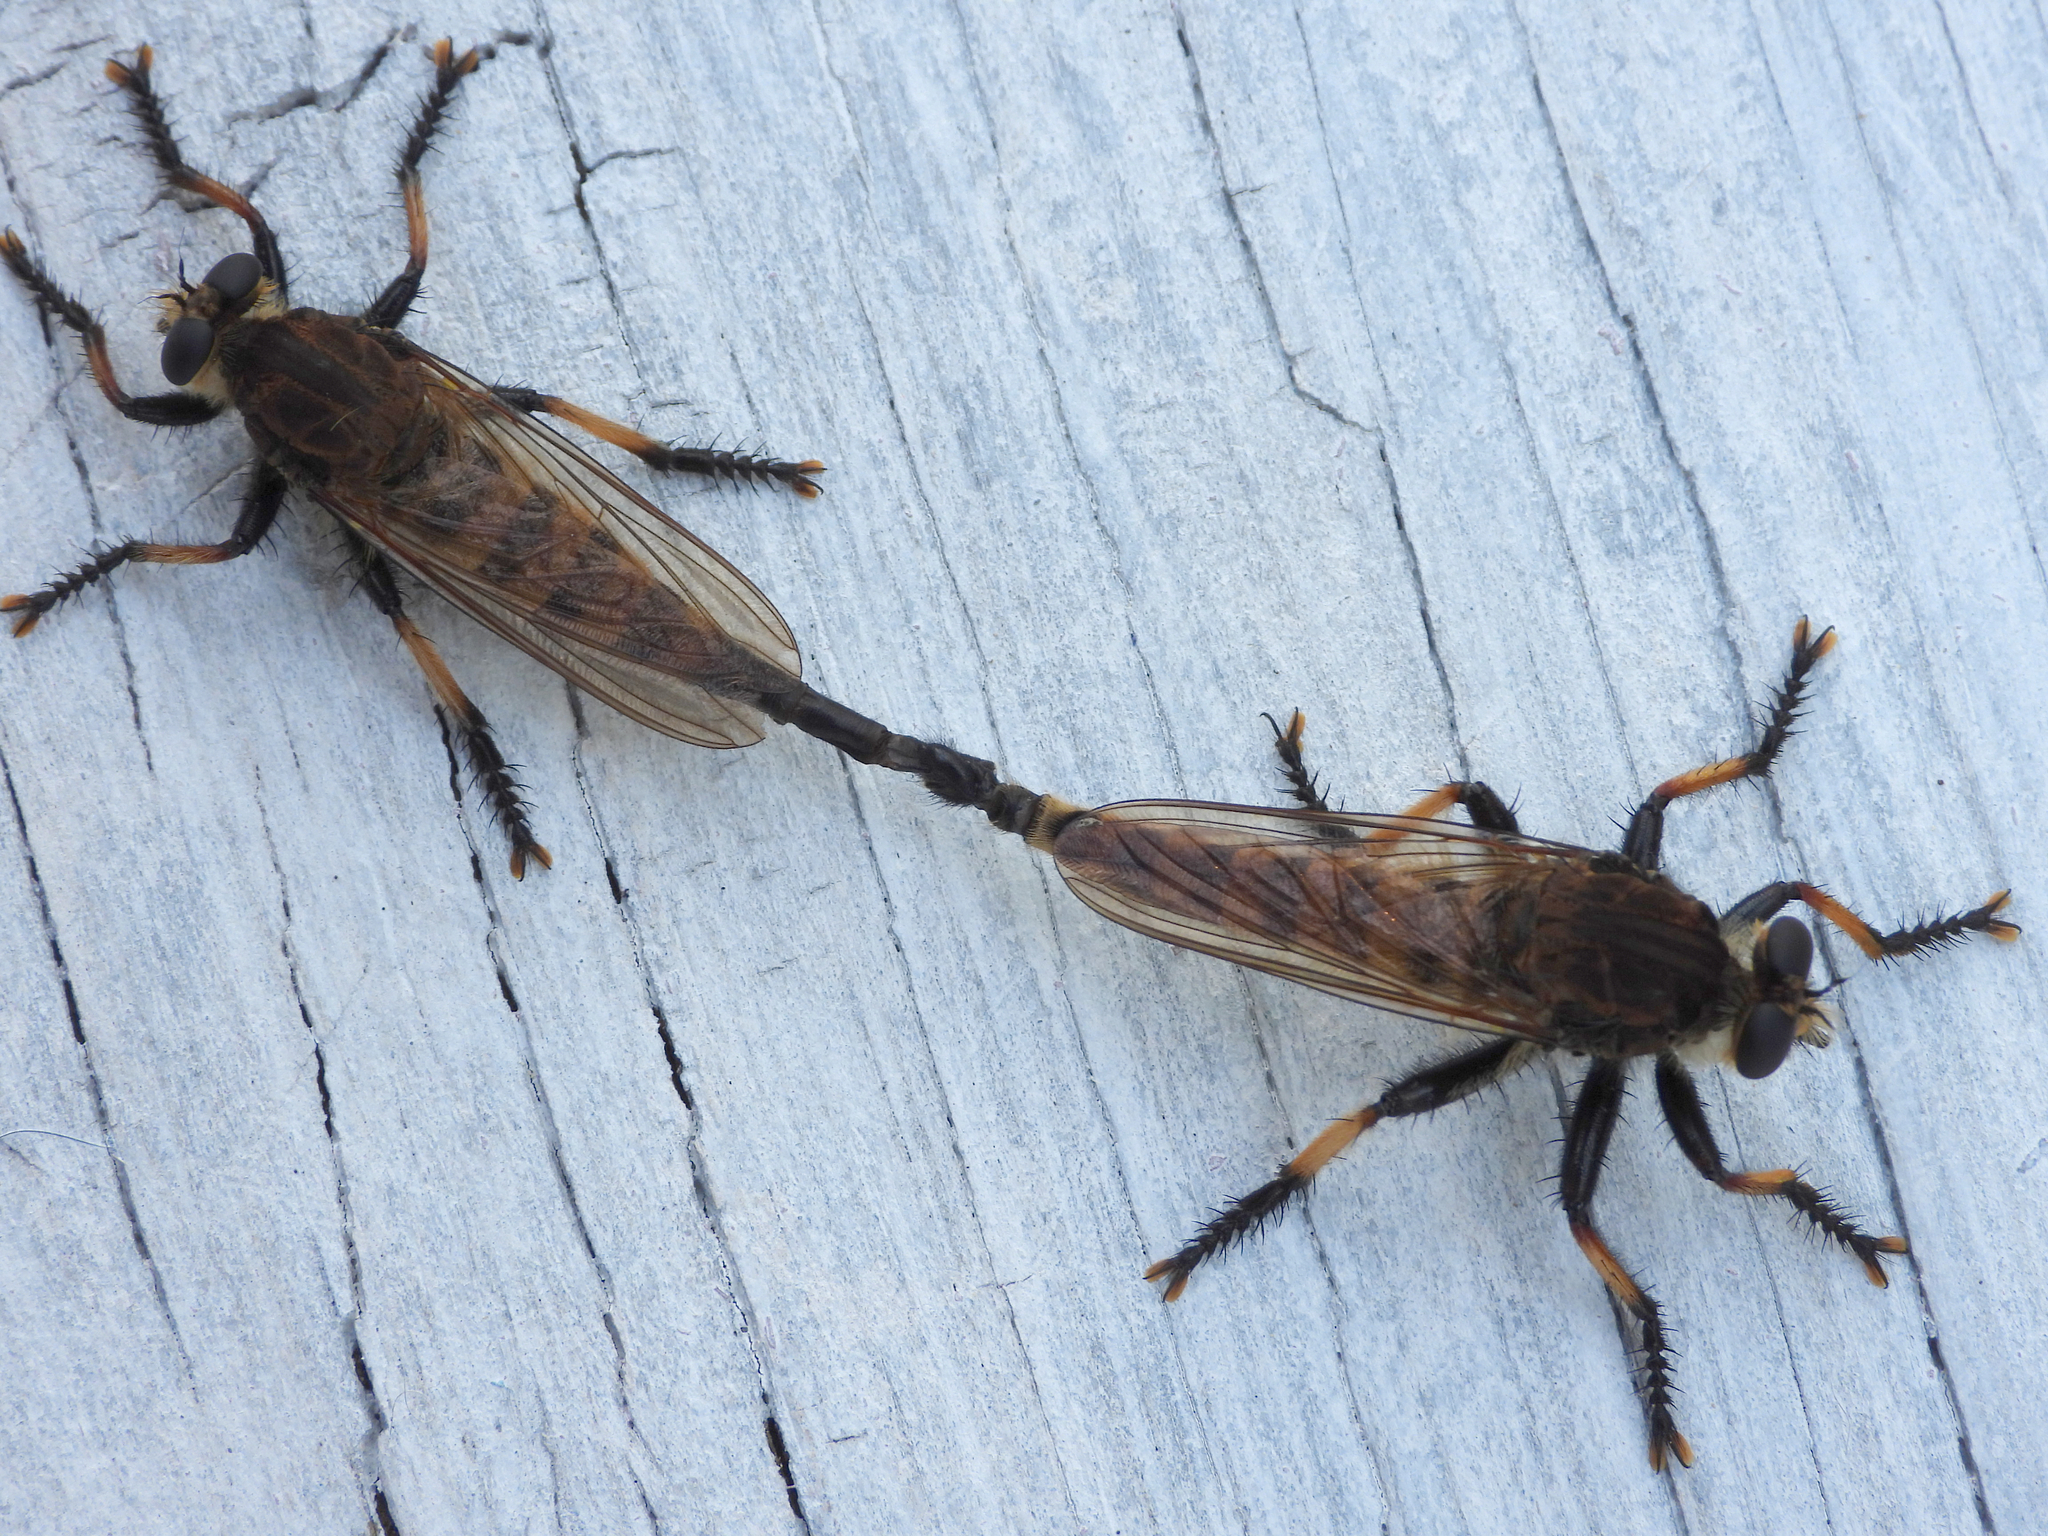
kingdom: Animalia
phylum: Arthropoda
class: Insecta
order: Diptera
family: Asilidae
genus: Promachus
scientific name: Promachus rufipes
